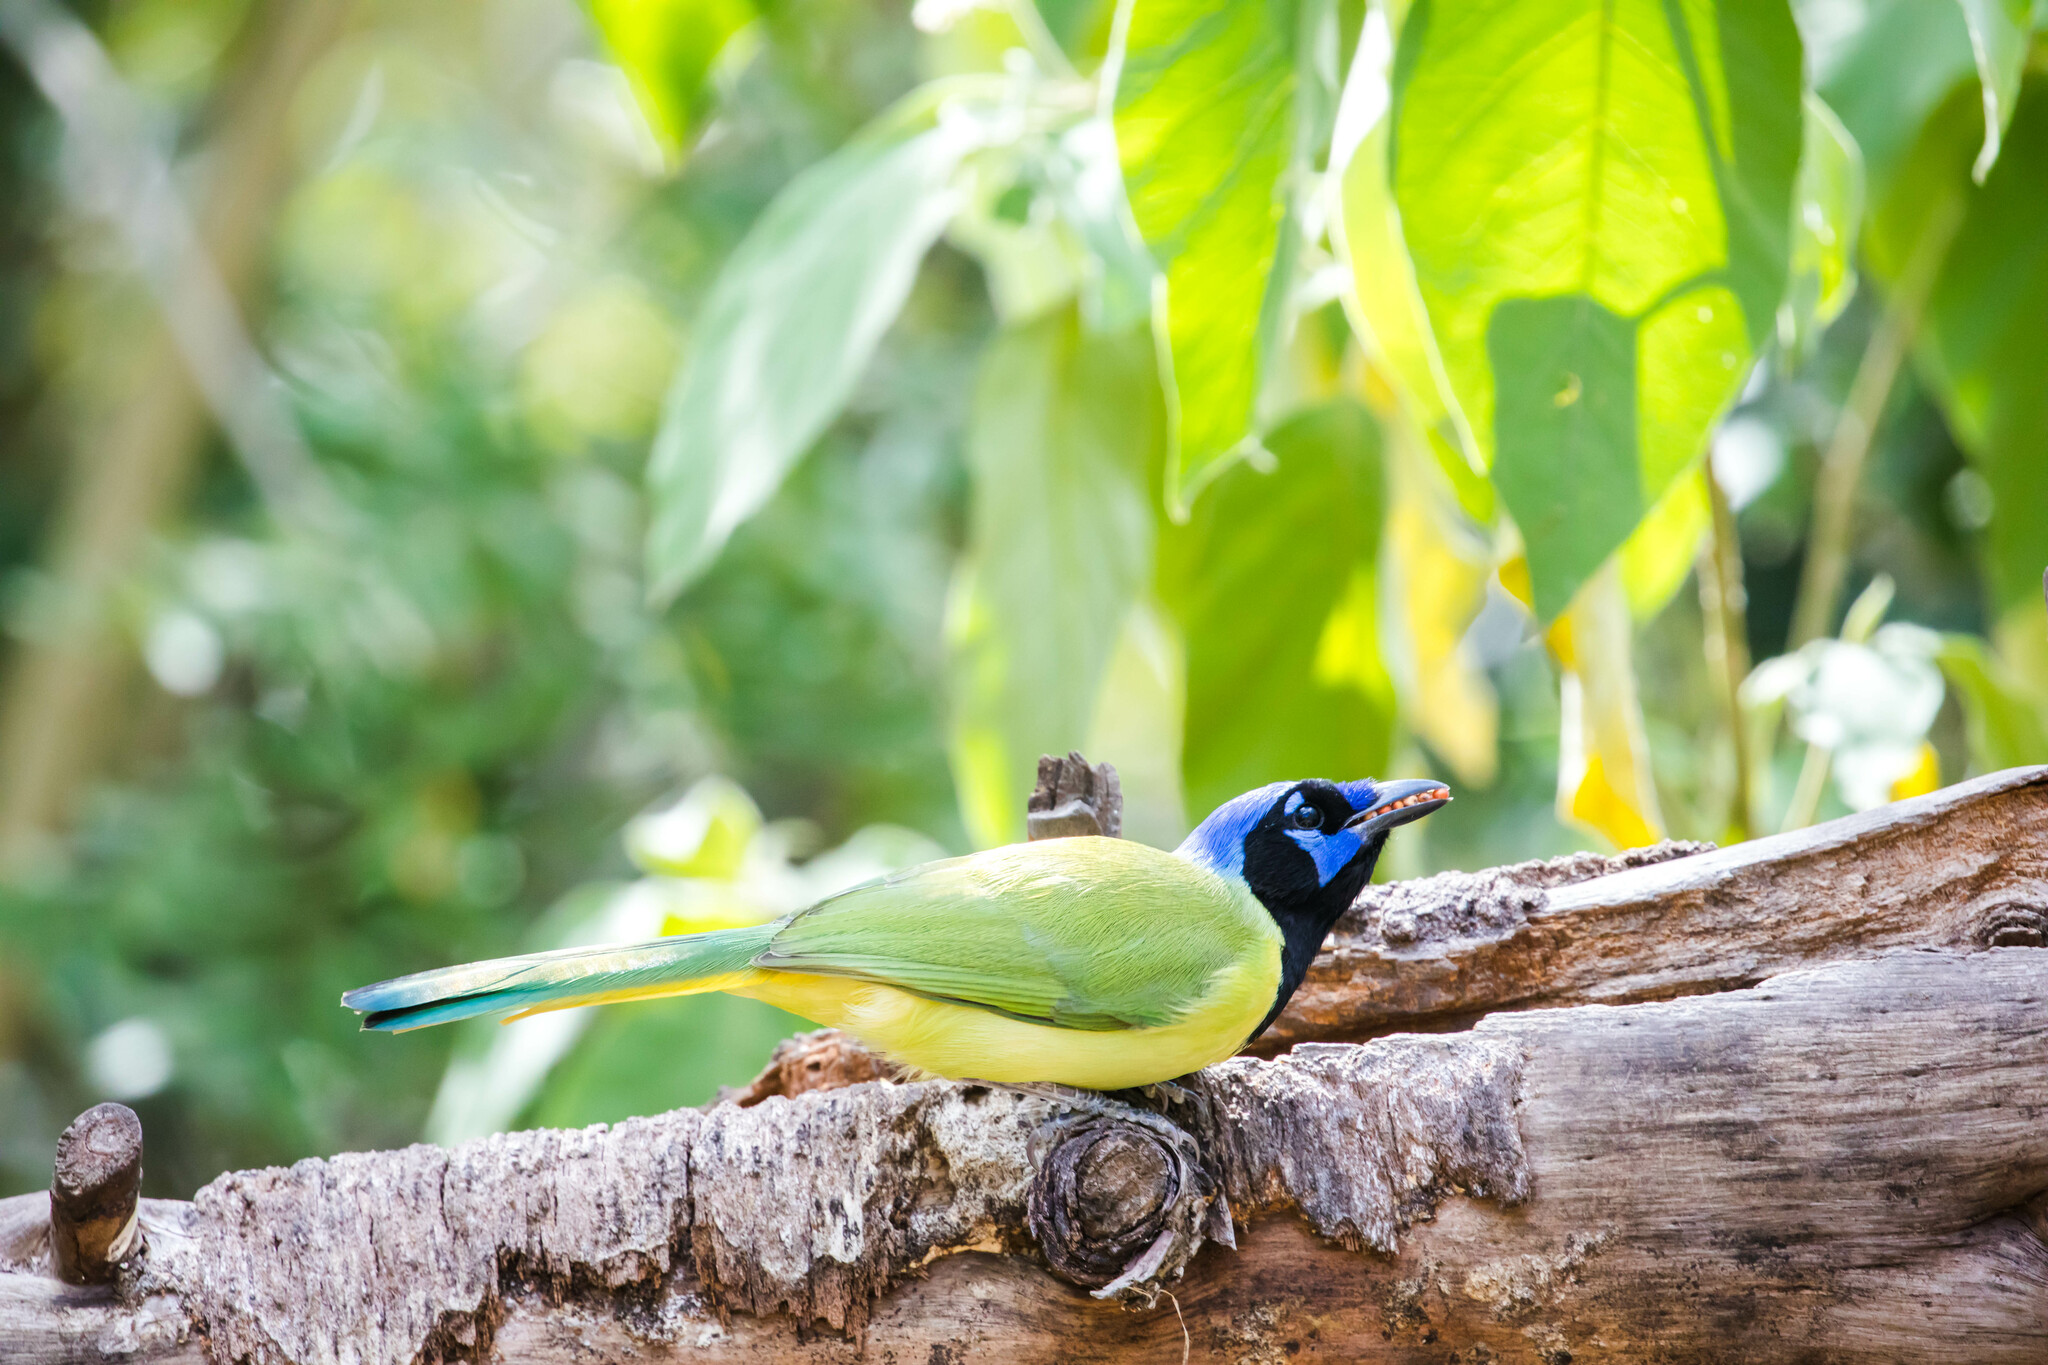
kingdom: Animalia
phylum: Chordata
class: Aves
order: Passeriformes
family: Corvidae
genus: Cyanocorax
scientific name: Cyanocorax yncas
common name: Green jay
